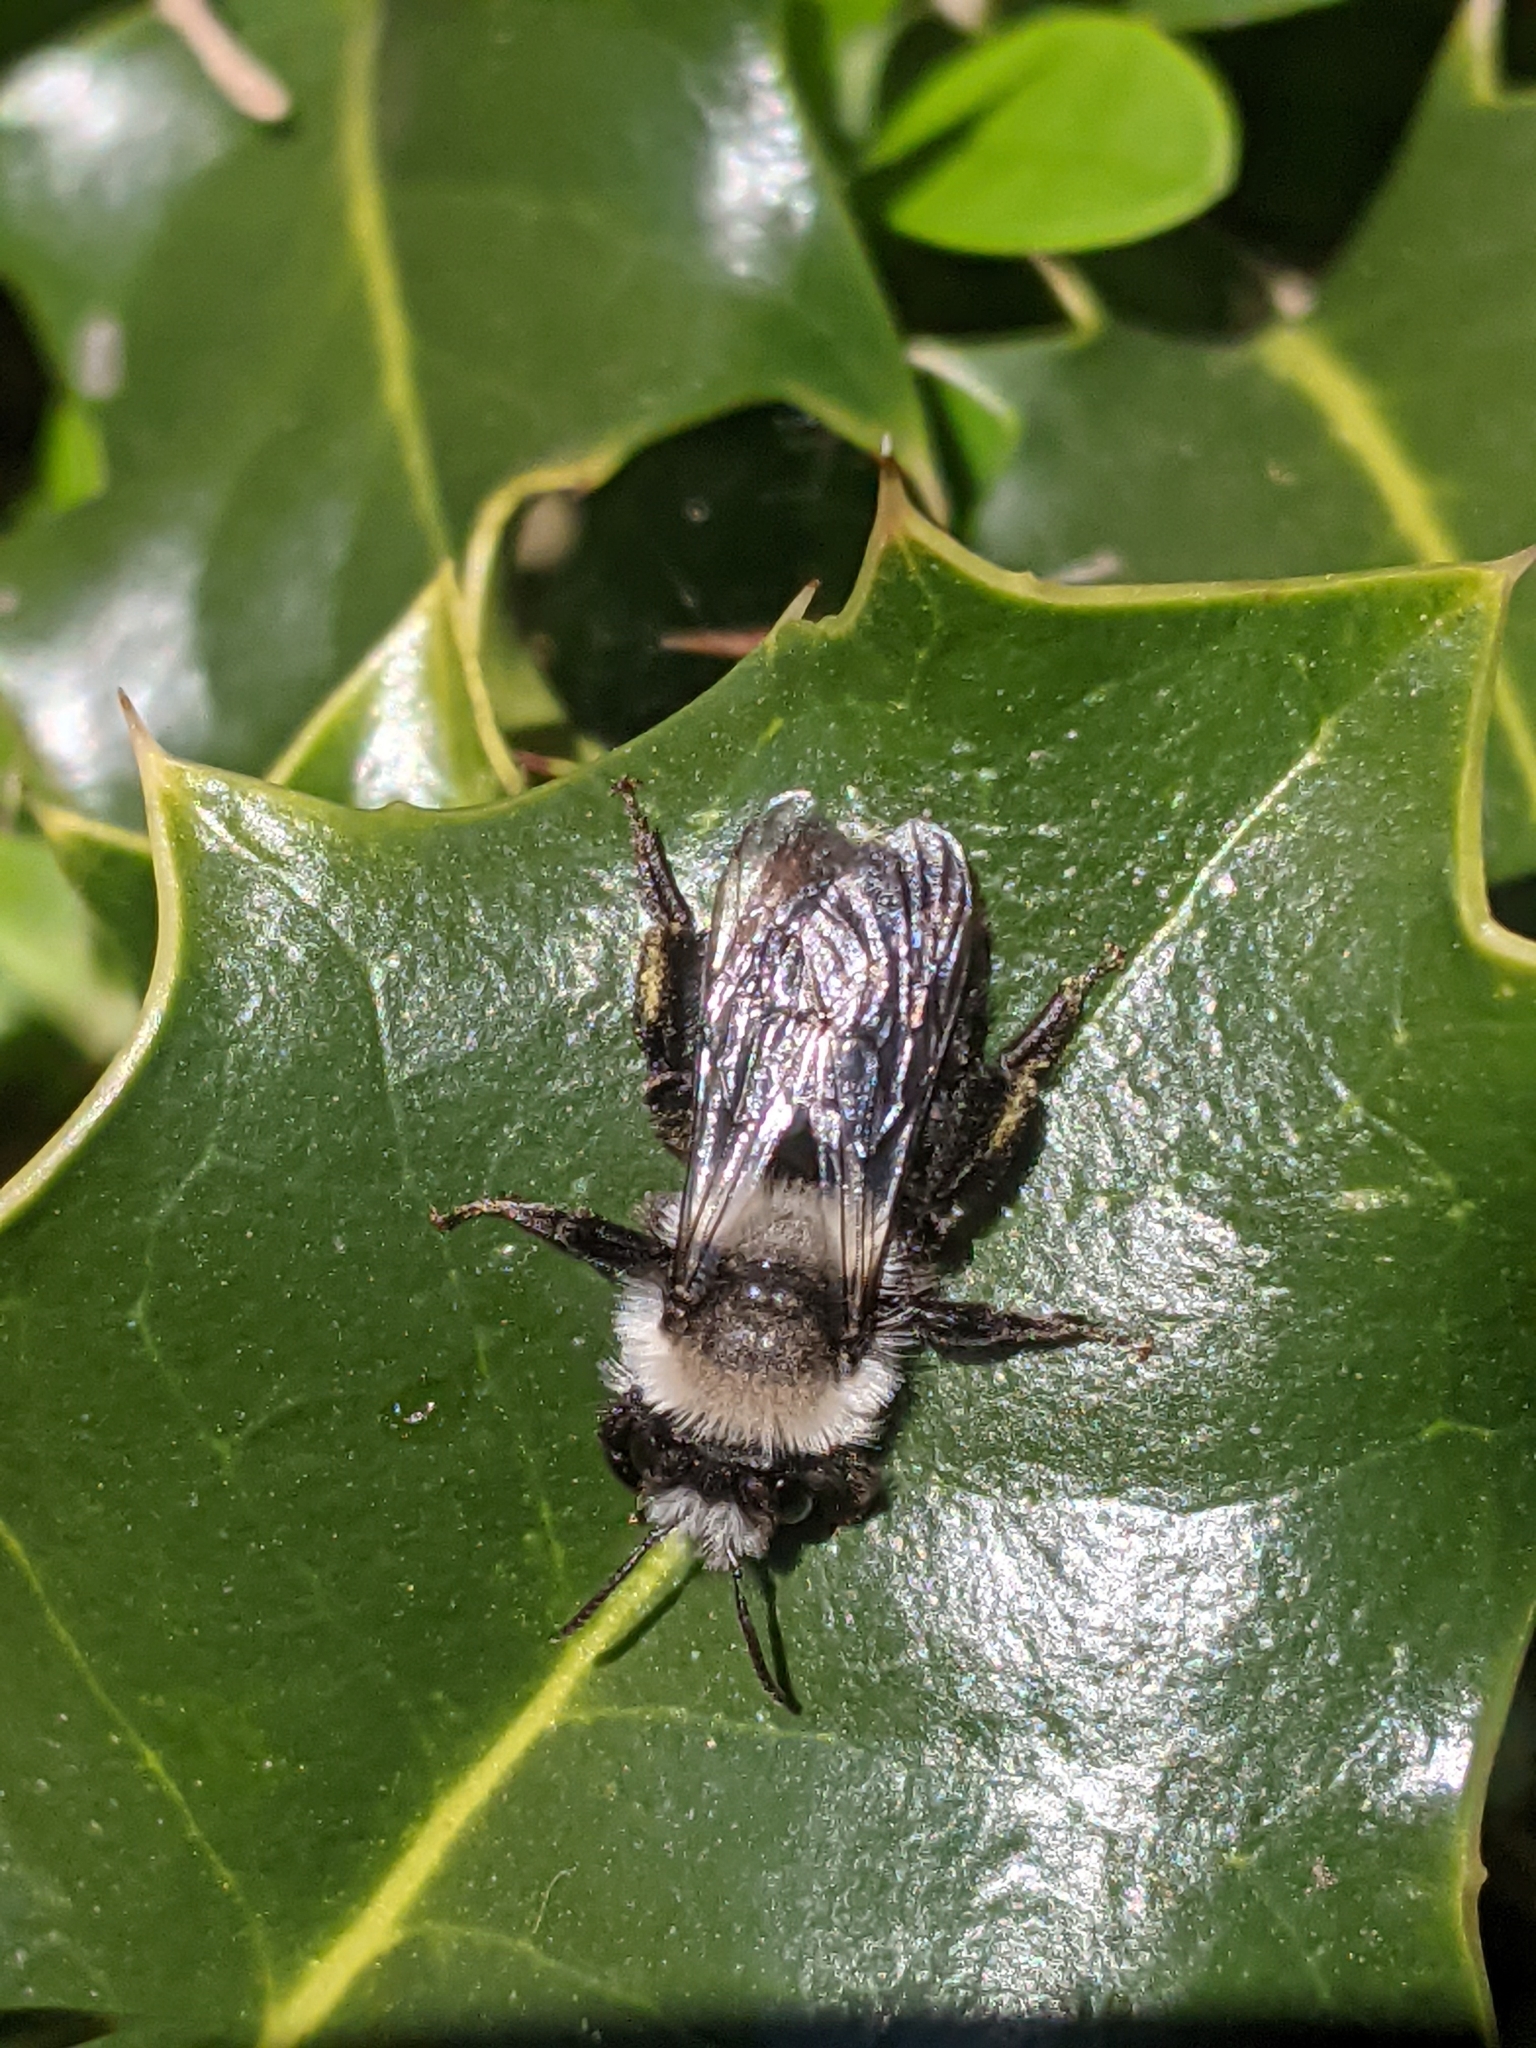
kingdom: Animalia
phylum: Arthropoda
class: Insecta
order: Hymenoptera
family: Andrenidae
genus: Andrena
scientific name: Andrena cineraria
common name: Ashy mining bee
